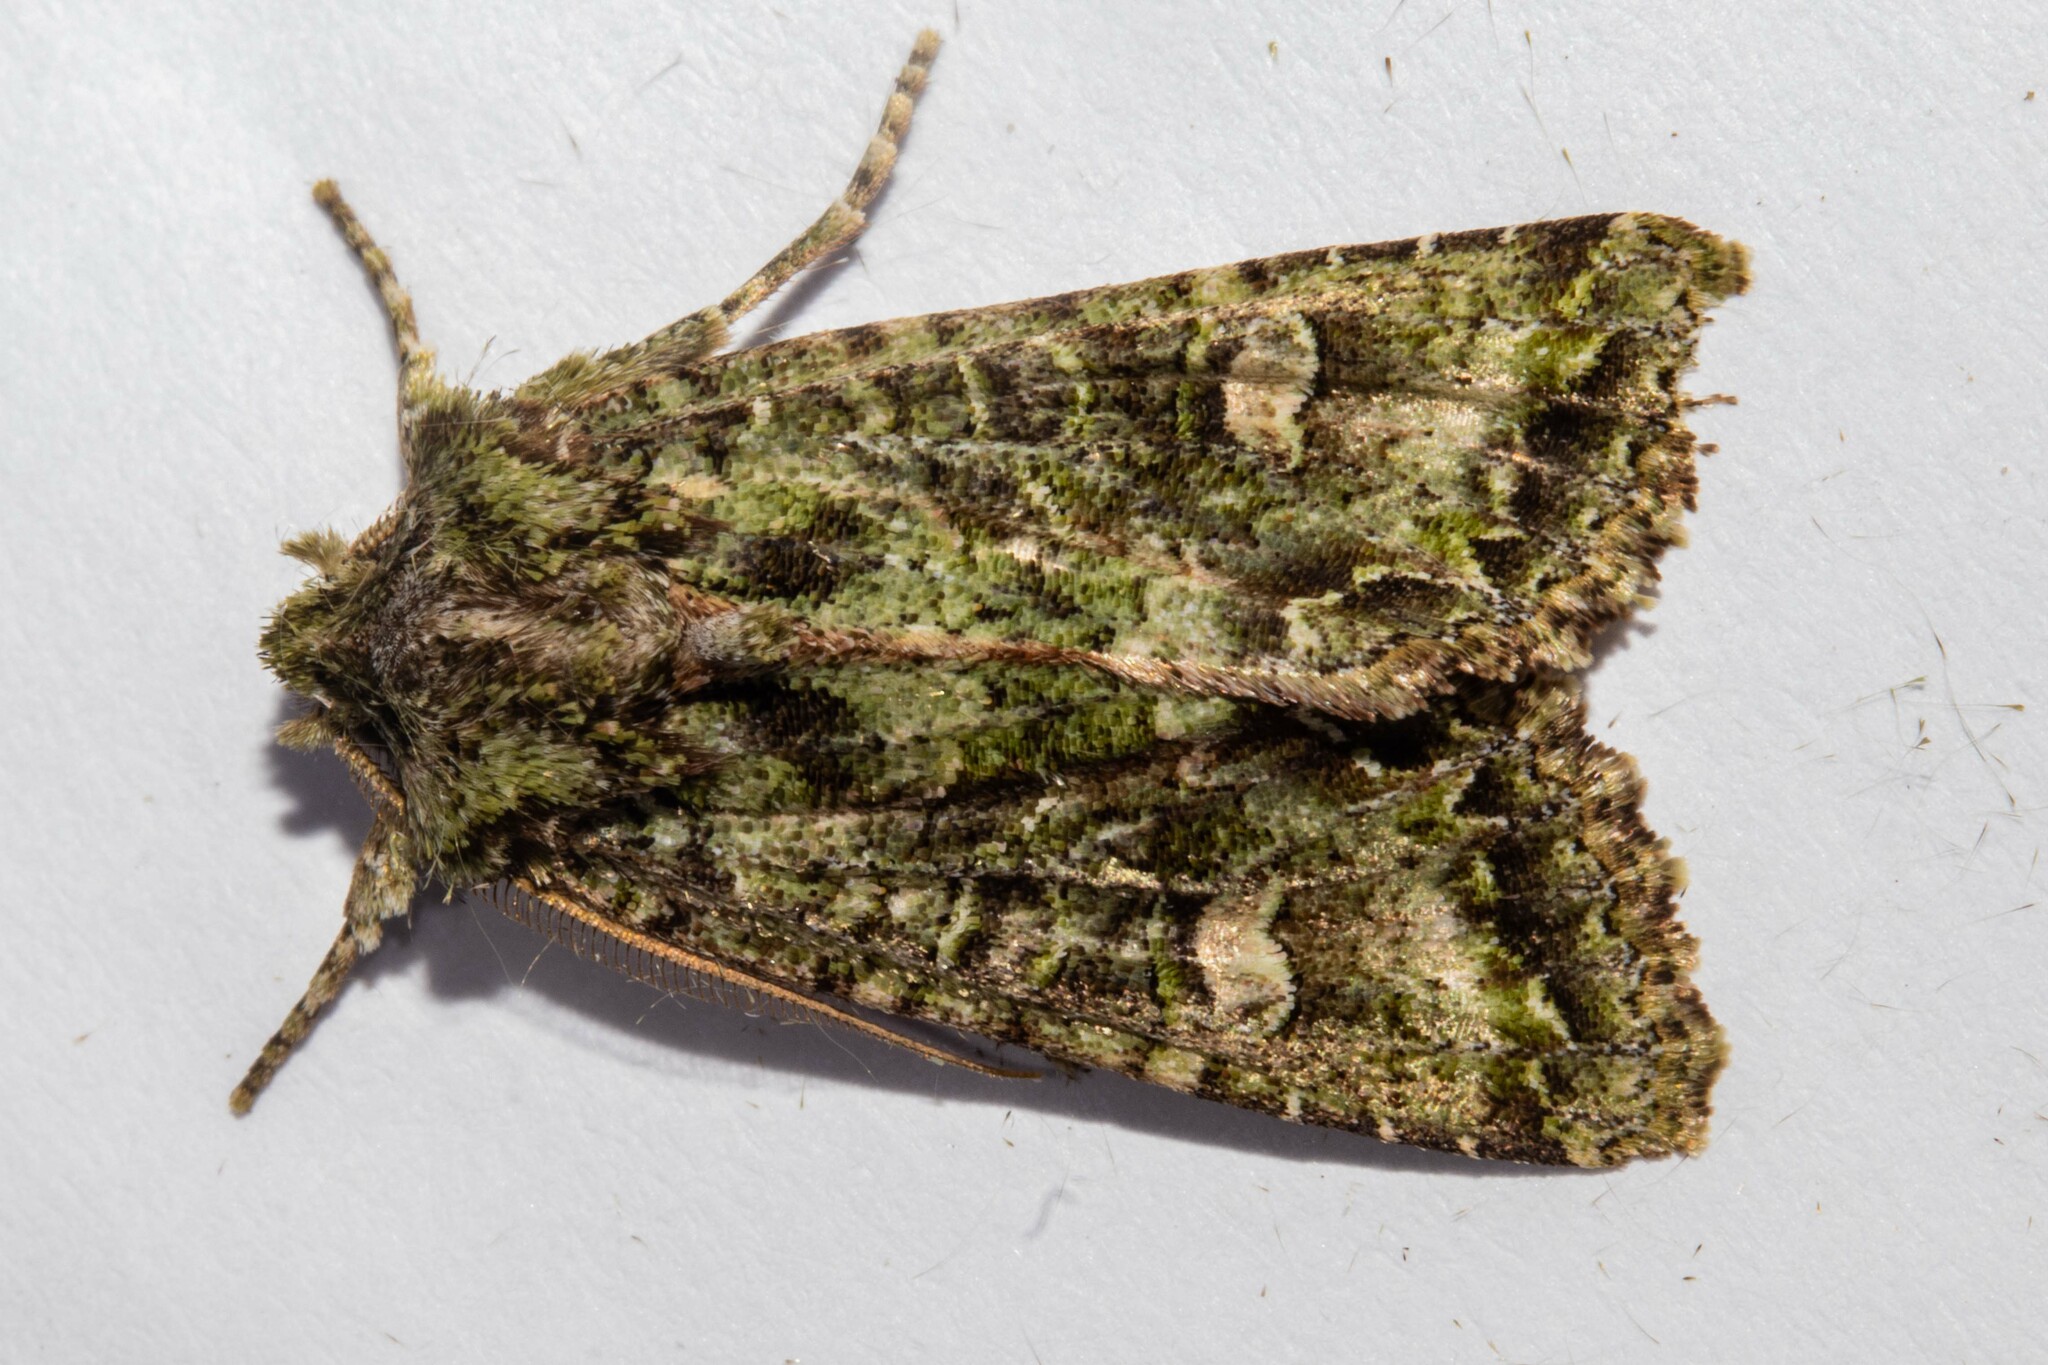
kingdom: Animalia
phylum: Arthropoda
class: Insecta
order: Lepidoptera
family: Noctuidae
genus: Ichneutica
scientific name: Ichneutica
